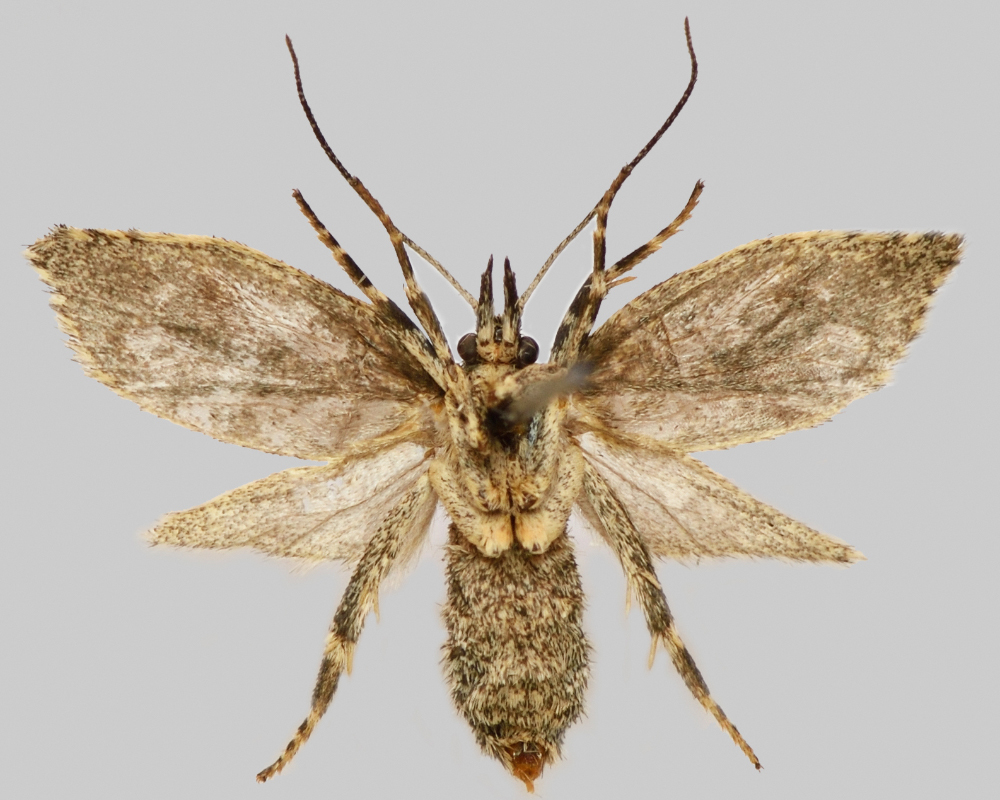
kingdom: Animalia
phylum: Arthropoda
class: Insecta
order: Lepidoptera
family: Lypusidae
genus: Diurnea
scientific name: Diurnea fagella
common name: March tubic
